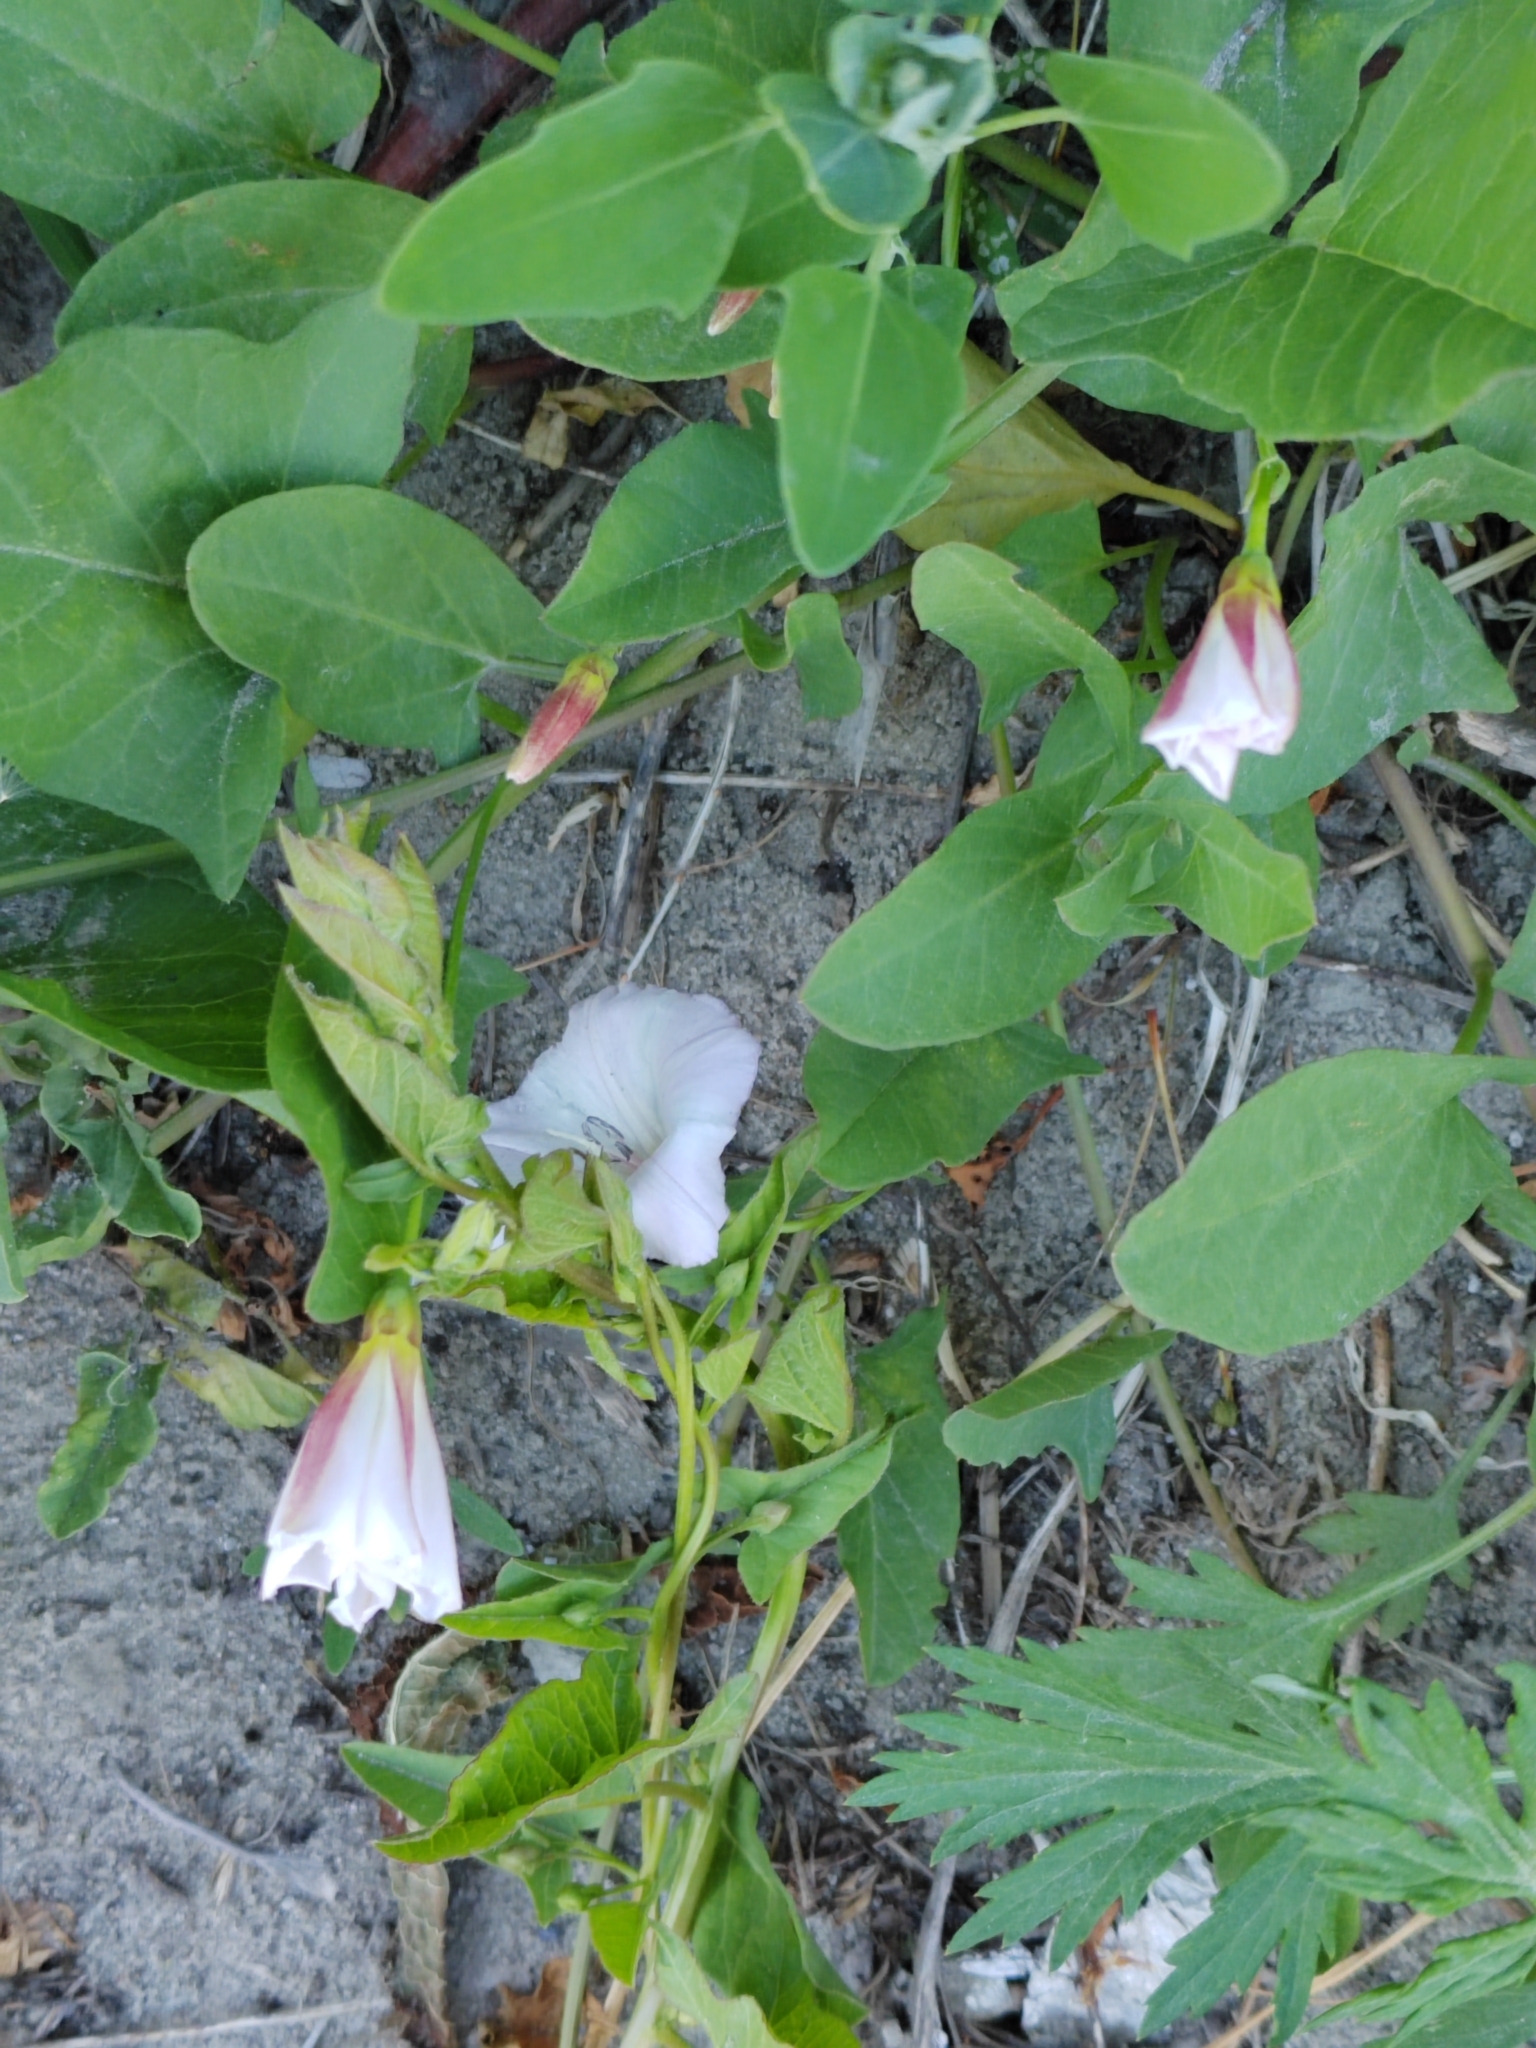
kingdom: Plantae
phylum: Tracheophyta
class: Magnoliopsida
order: Solanales
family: Convolvulaceae
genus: Convolvulus
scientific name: Convolvulus arvensis
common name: Field bindweed
